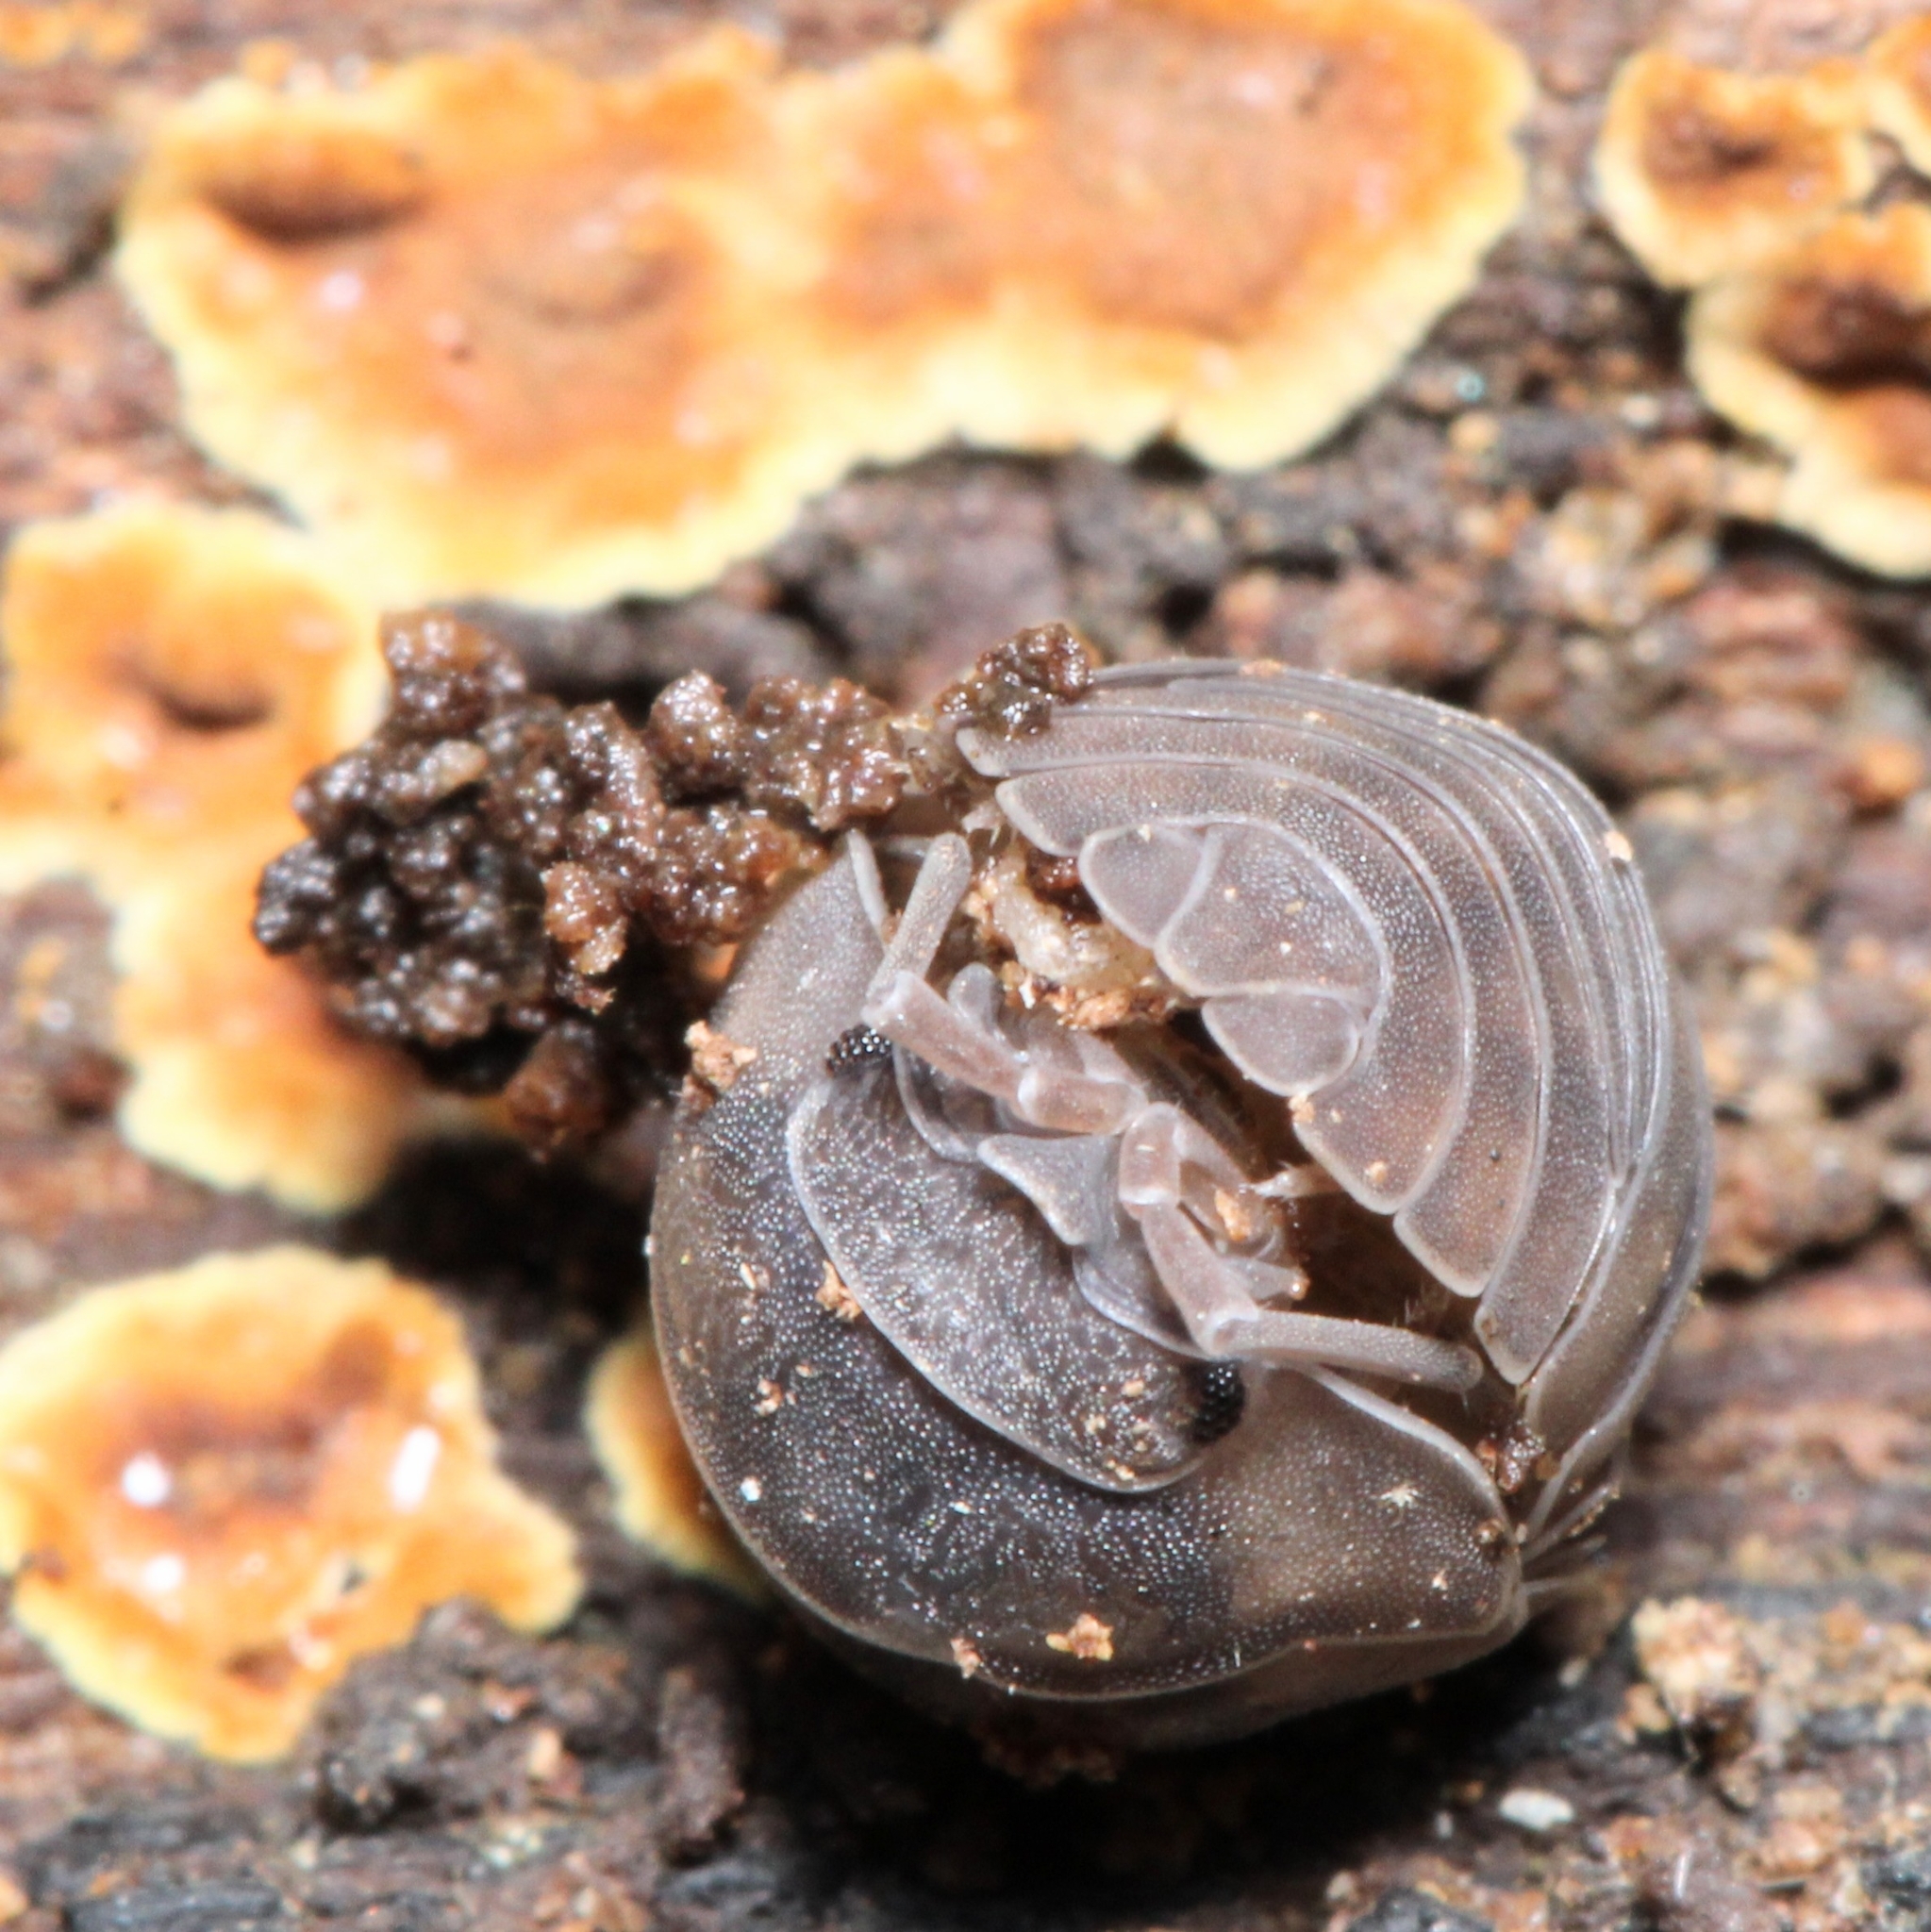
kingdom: Animalia
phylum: Arthropoda
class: Malacostraca
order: Isopoda
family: Armadillidiidae
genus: Armadillidium
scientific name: Armadillidium nasatum
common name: Isopod
